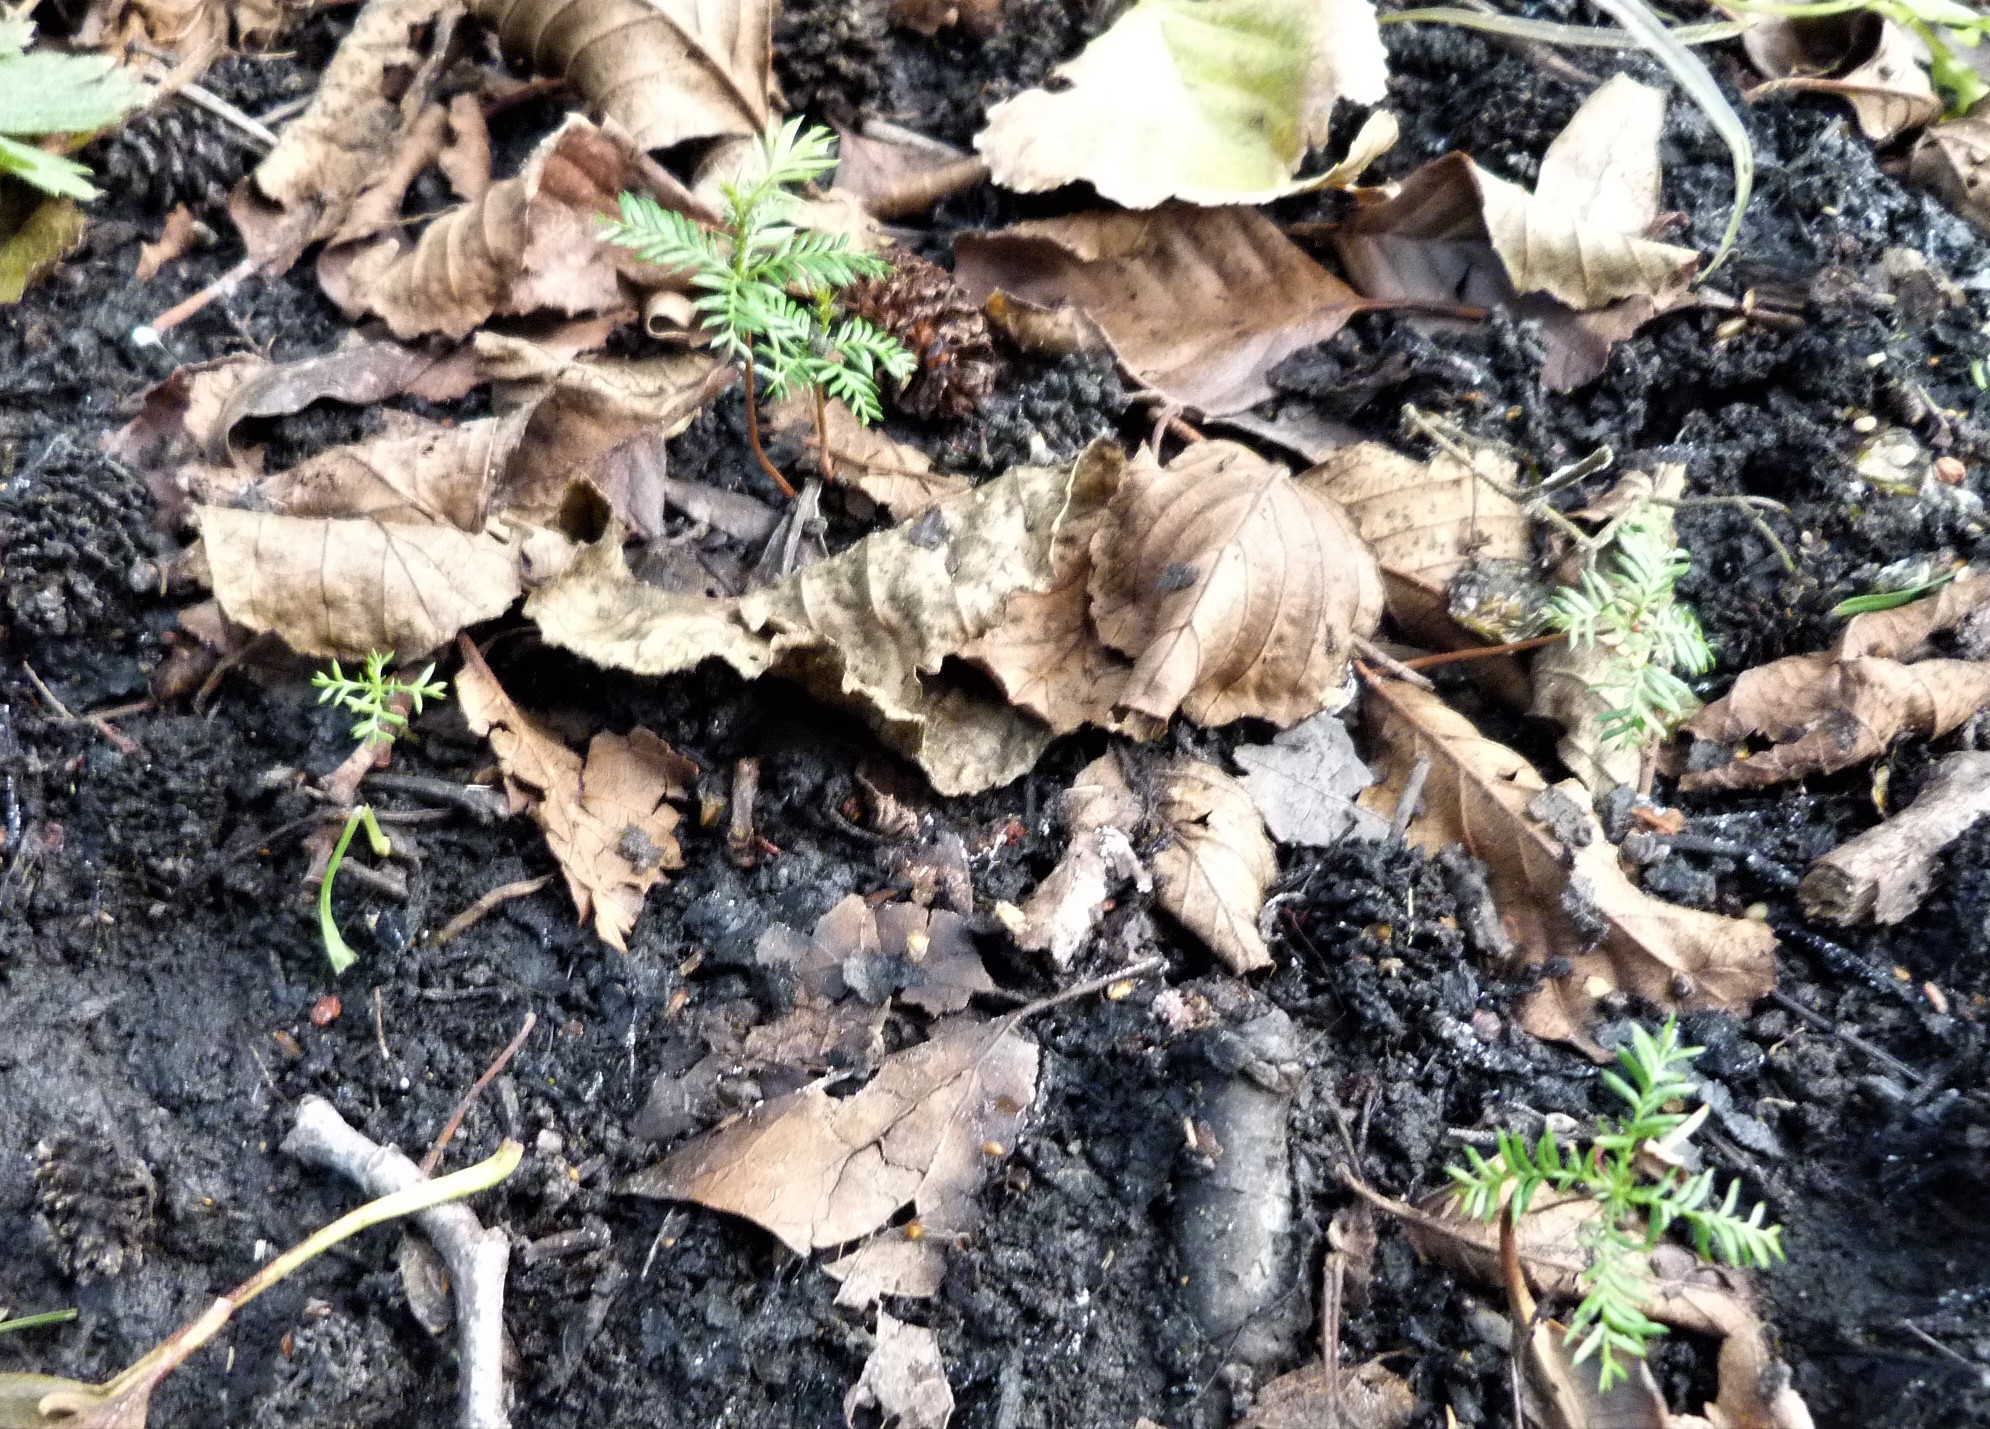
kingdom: Plantae
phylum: Tracheophyta
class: Pinopsida
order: Pinales
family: Podocarpaceae
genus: Dacrycarpus
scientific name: Dacrycarpus dacrydioides
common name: White pine
